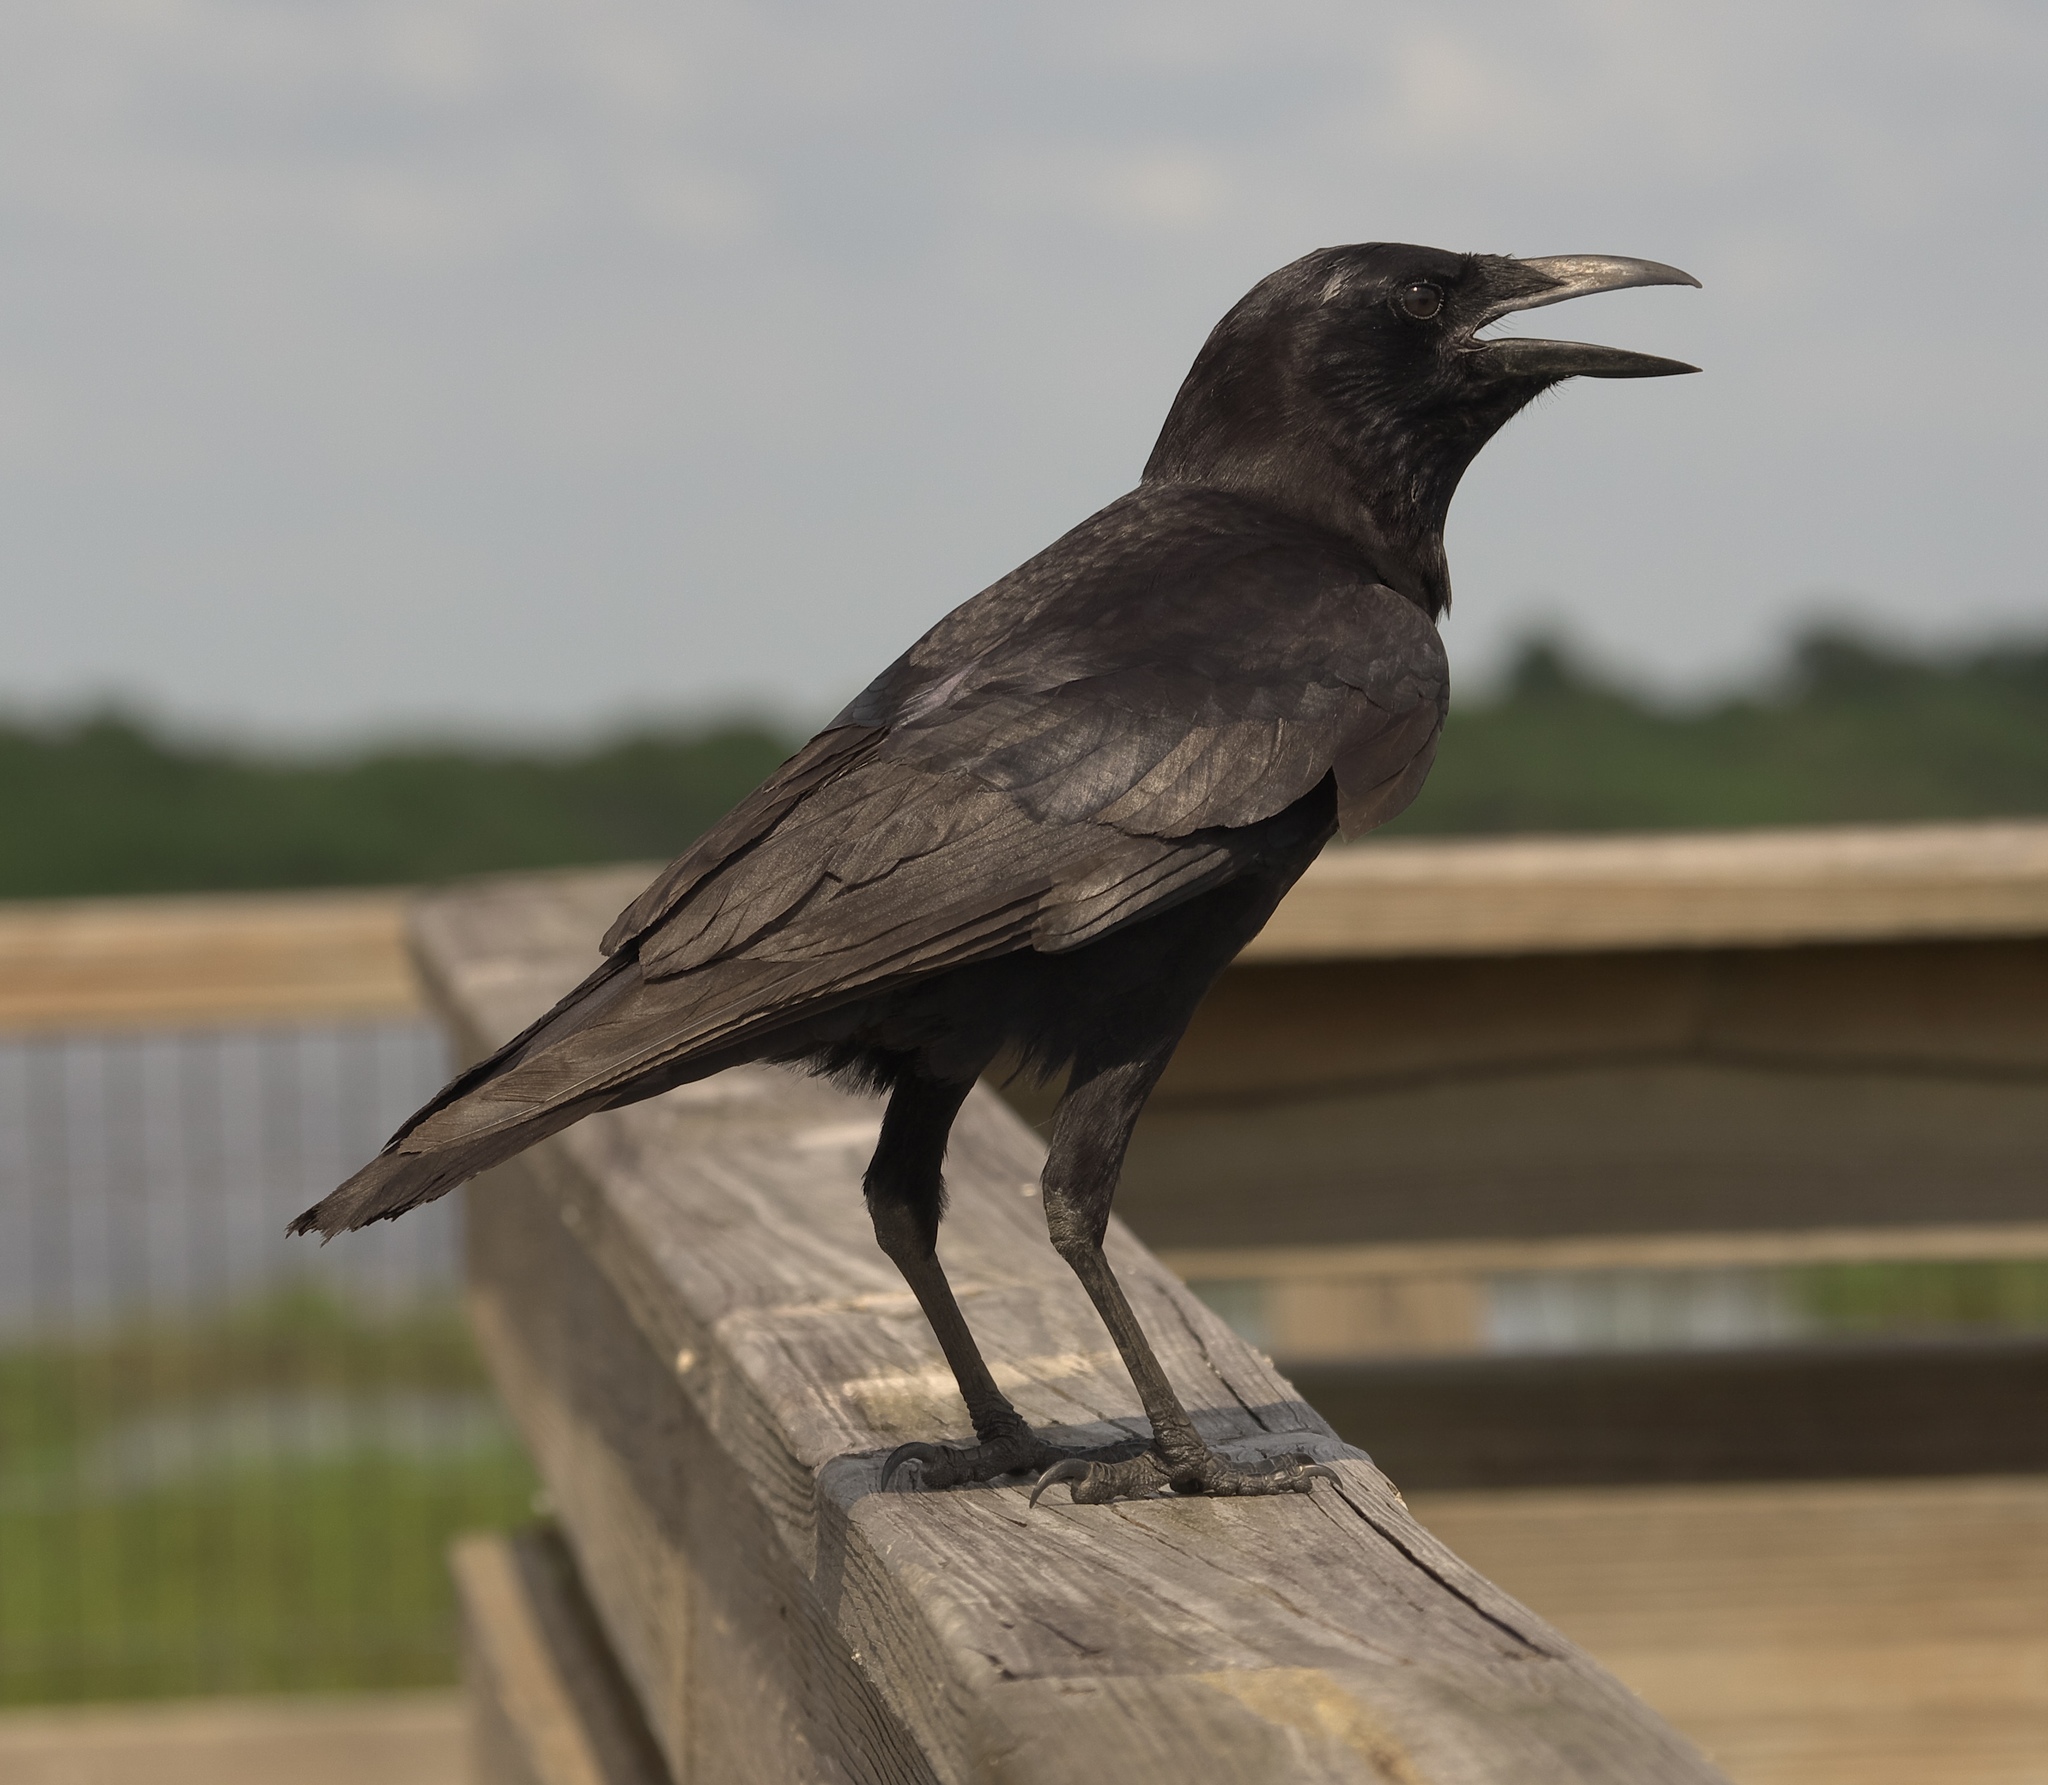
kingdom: Animalia
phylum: Chordata
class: Aves
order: Passeriformes
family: Corvidae
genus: Corvus
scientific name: Corvus brachyrhynchos
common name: American crow
